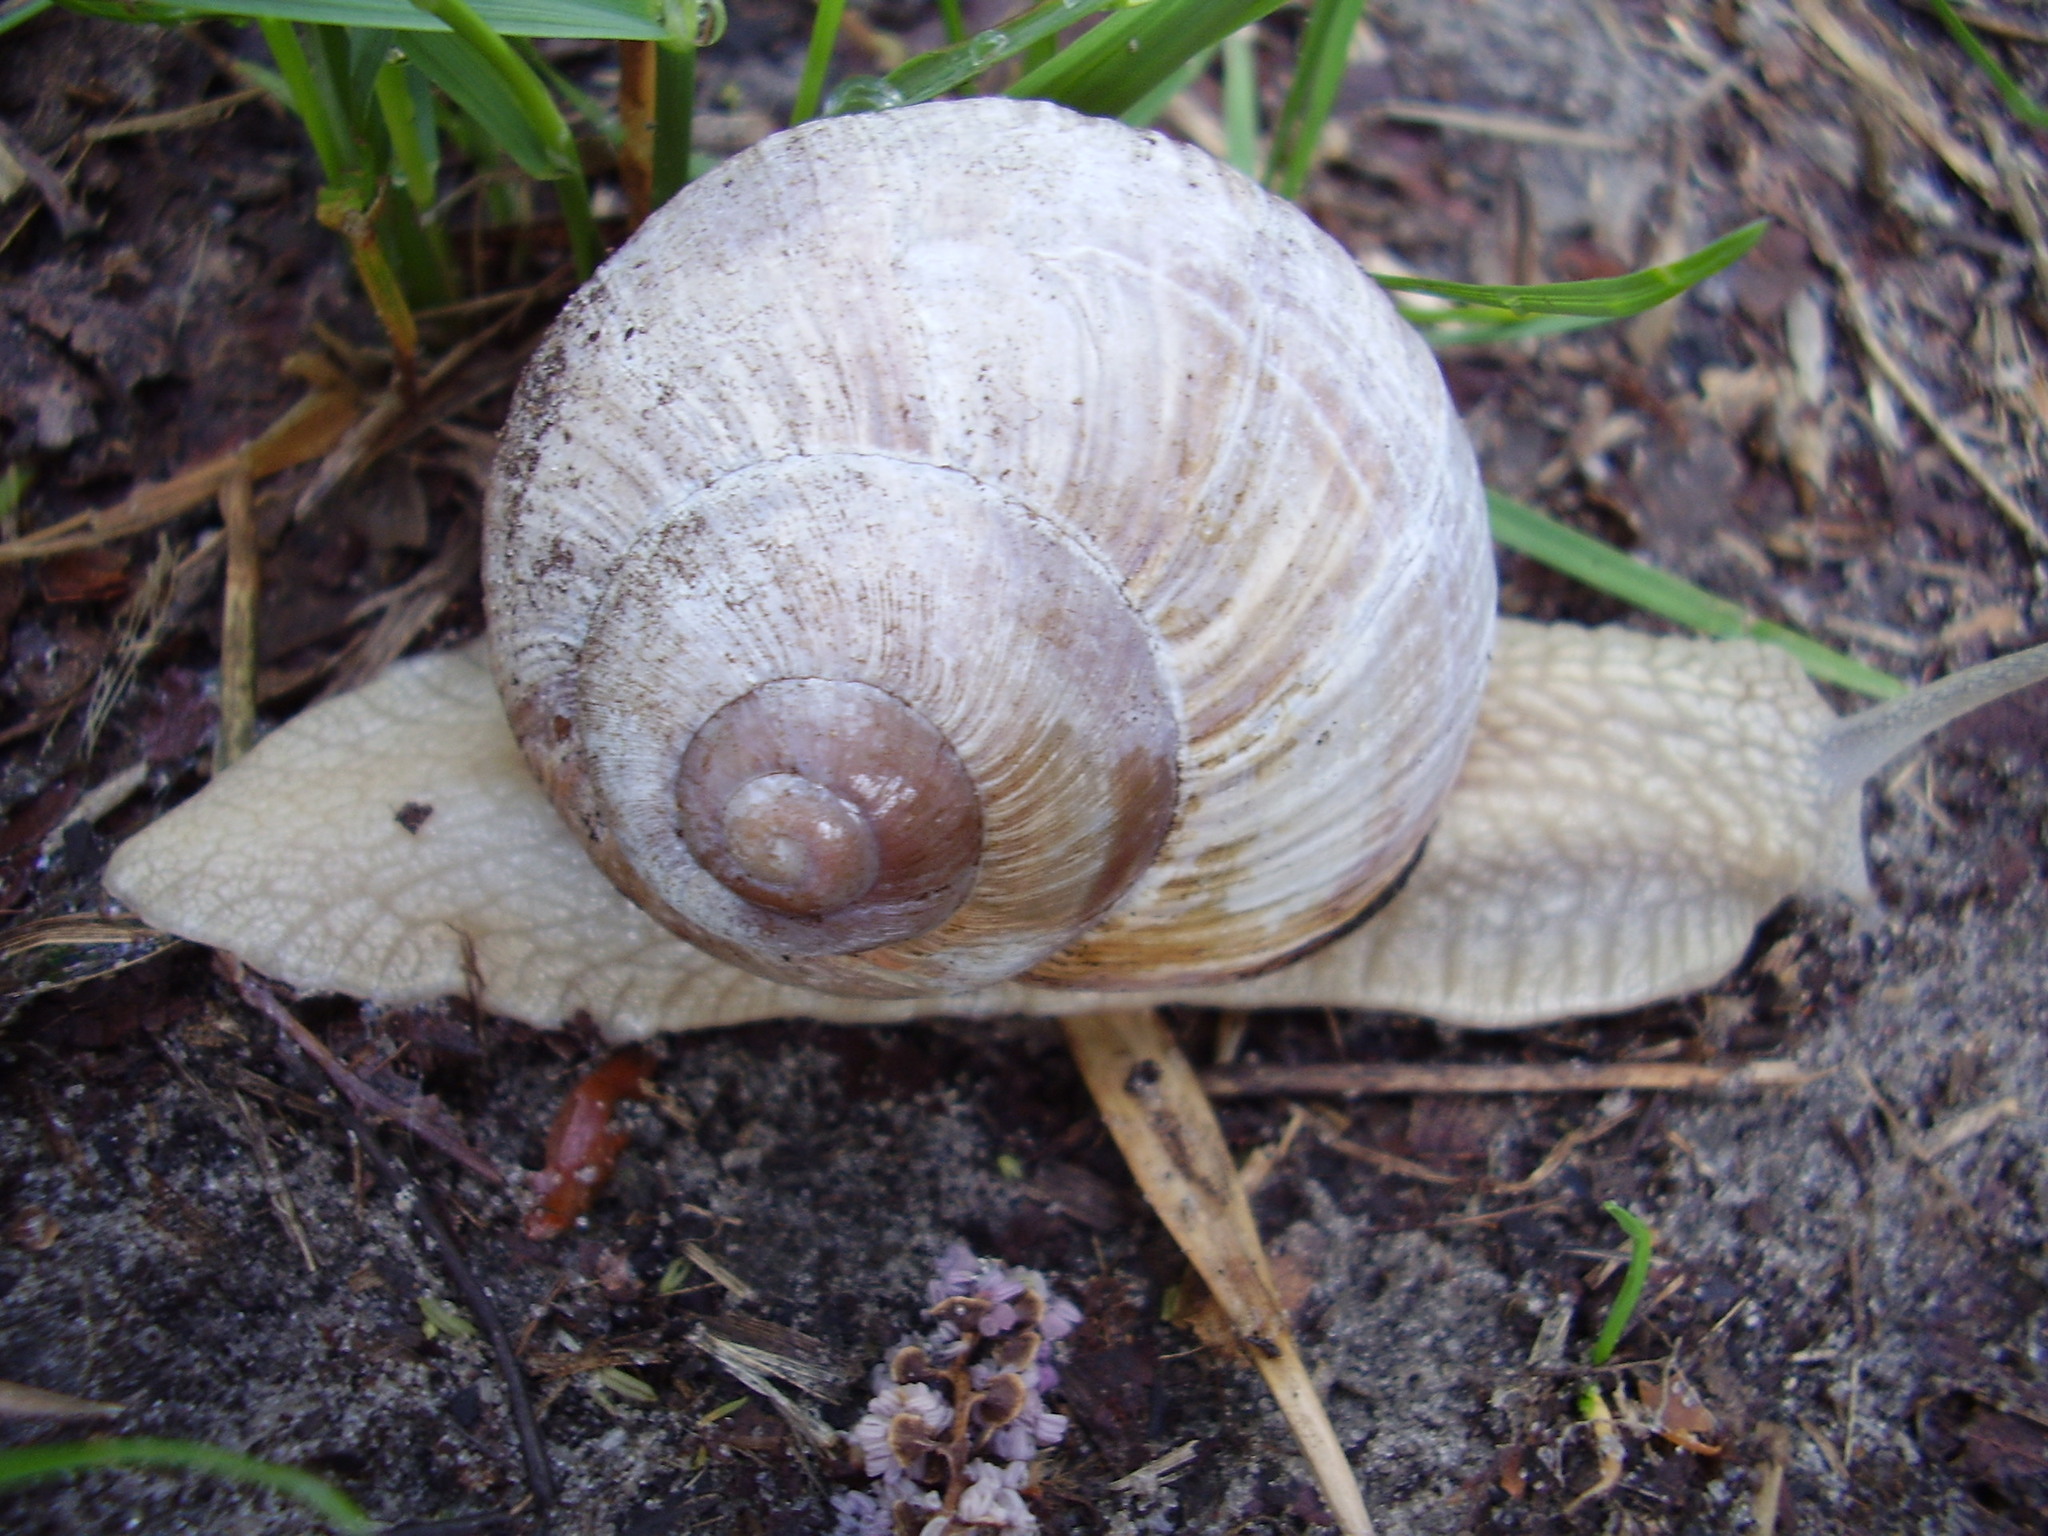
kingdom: Animalia
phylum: Mollusca
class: Gastropoda
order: Stylommatophora
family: Helicidae
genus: Helix
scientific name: Helix pomatia
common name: Roman snail
